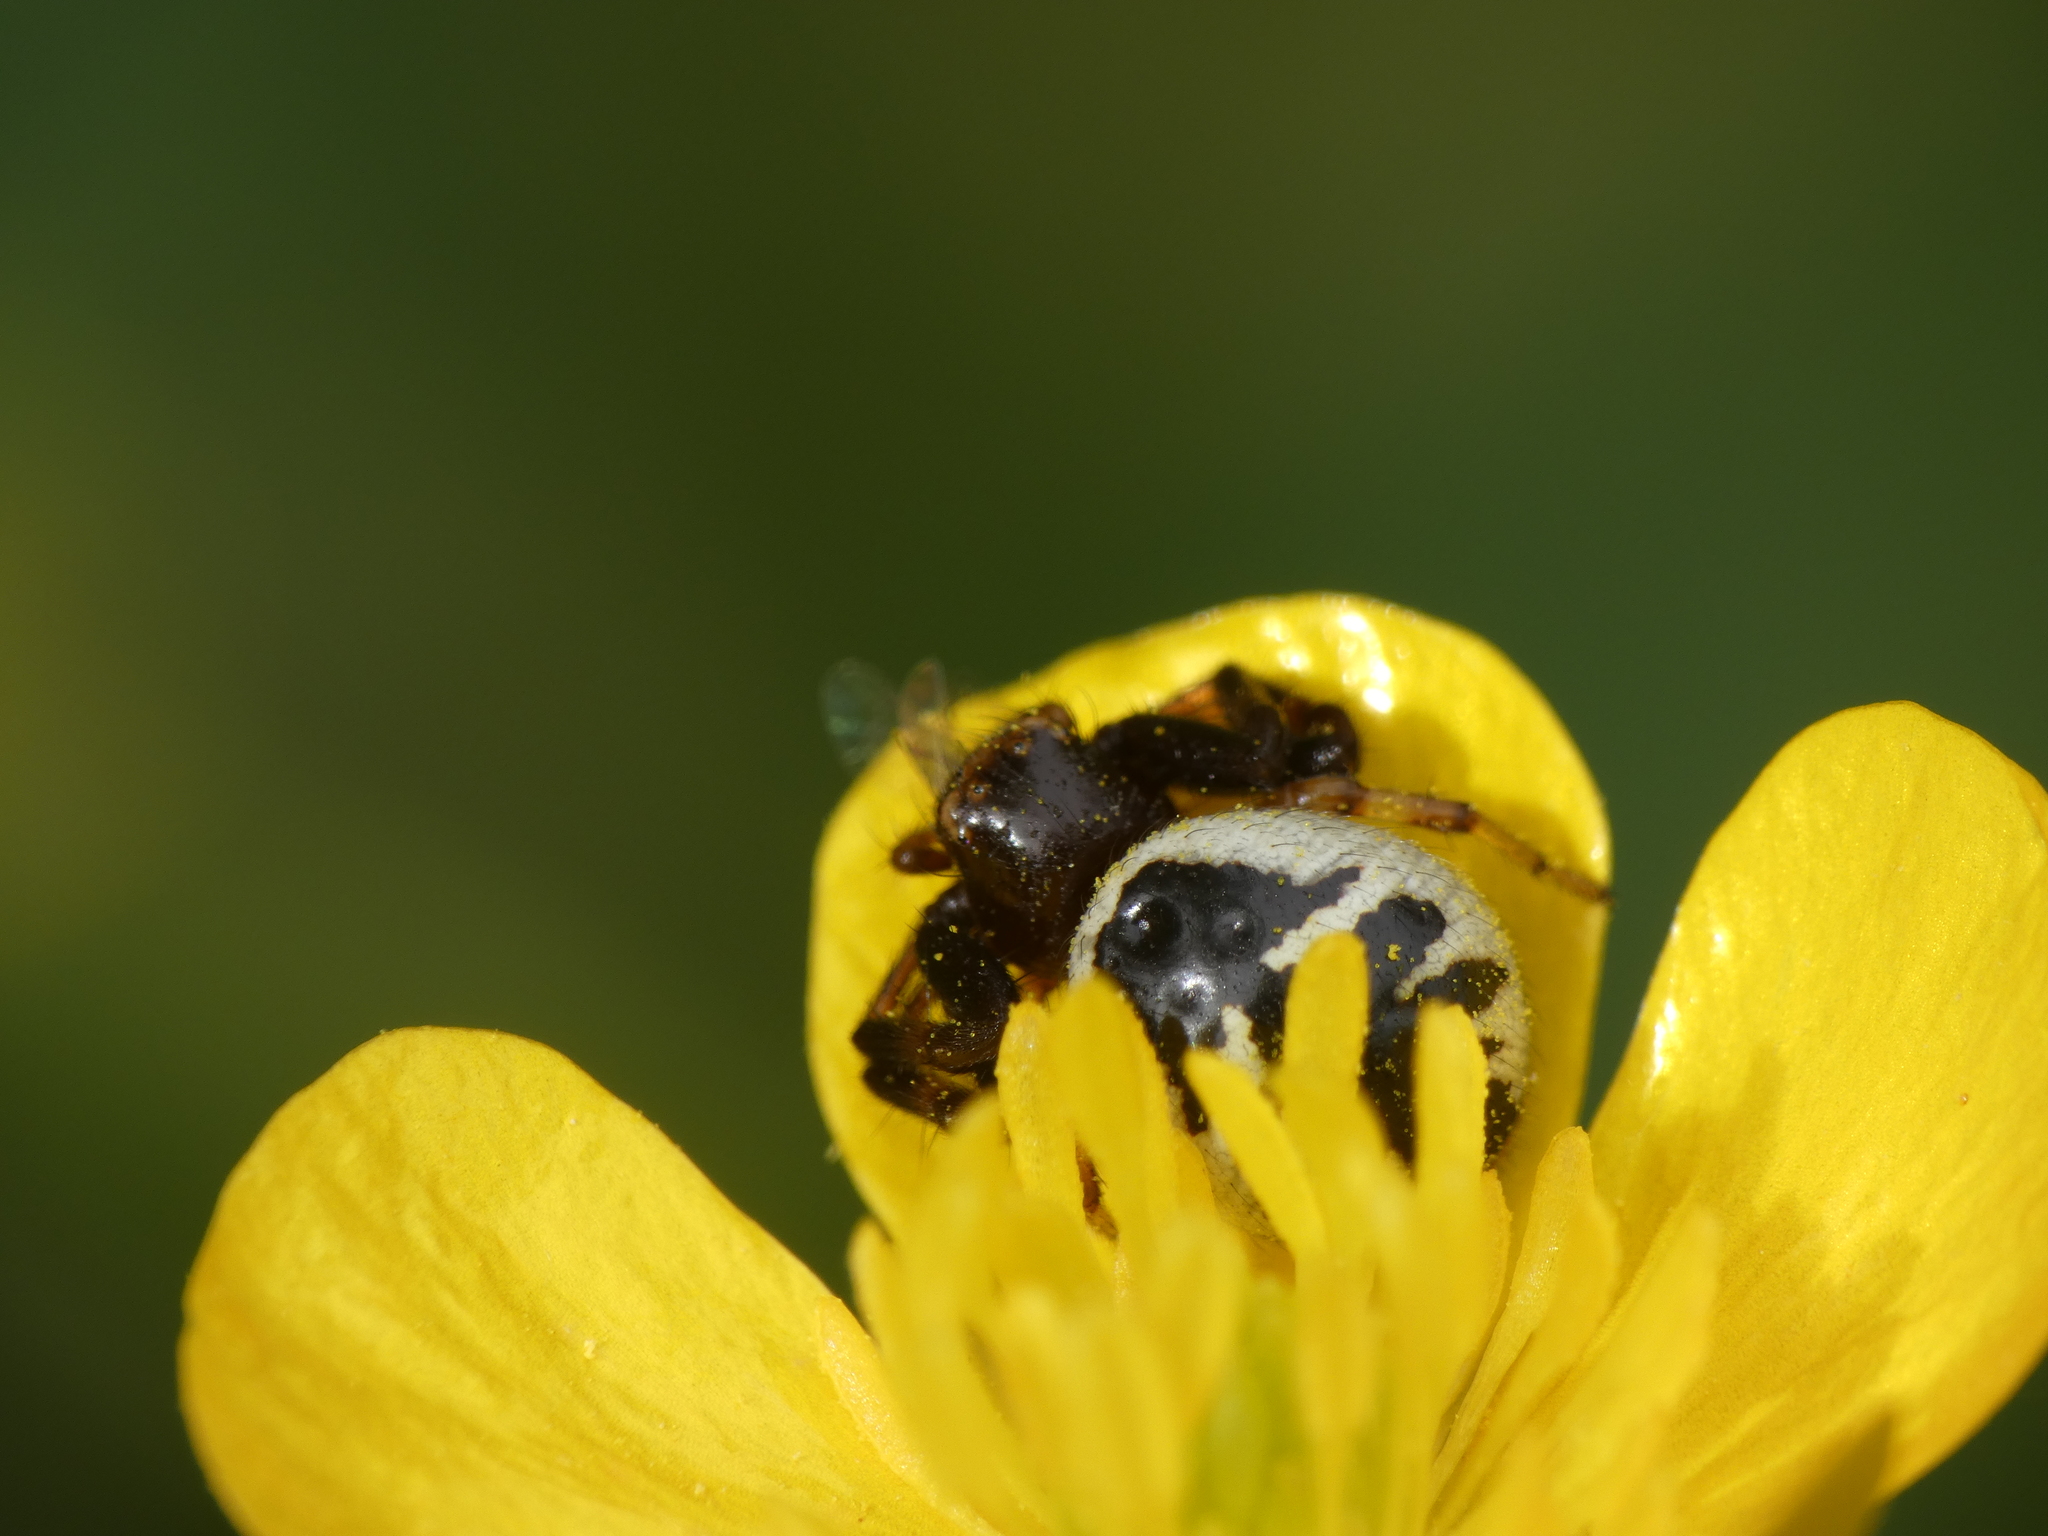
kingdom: Animalia
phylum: Arthropoda
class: Arachnida
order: Araneae
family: Thomisidae
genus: Synema
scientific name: Synema globosum
